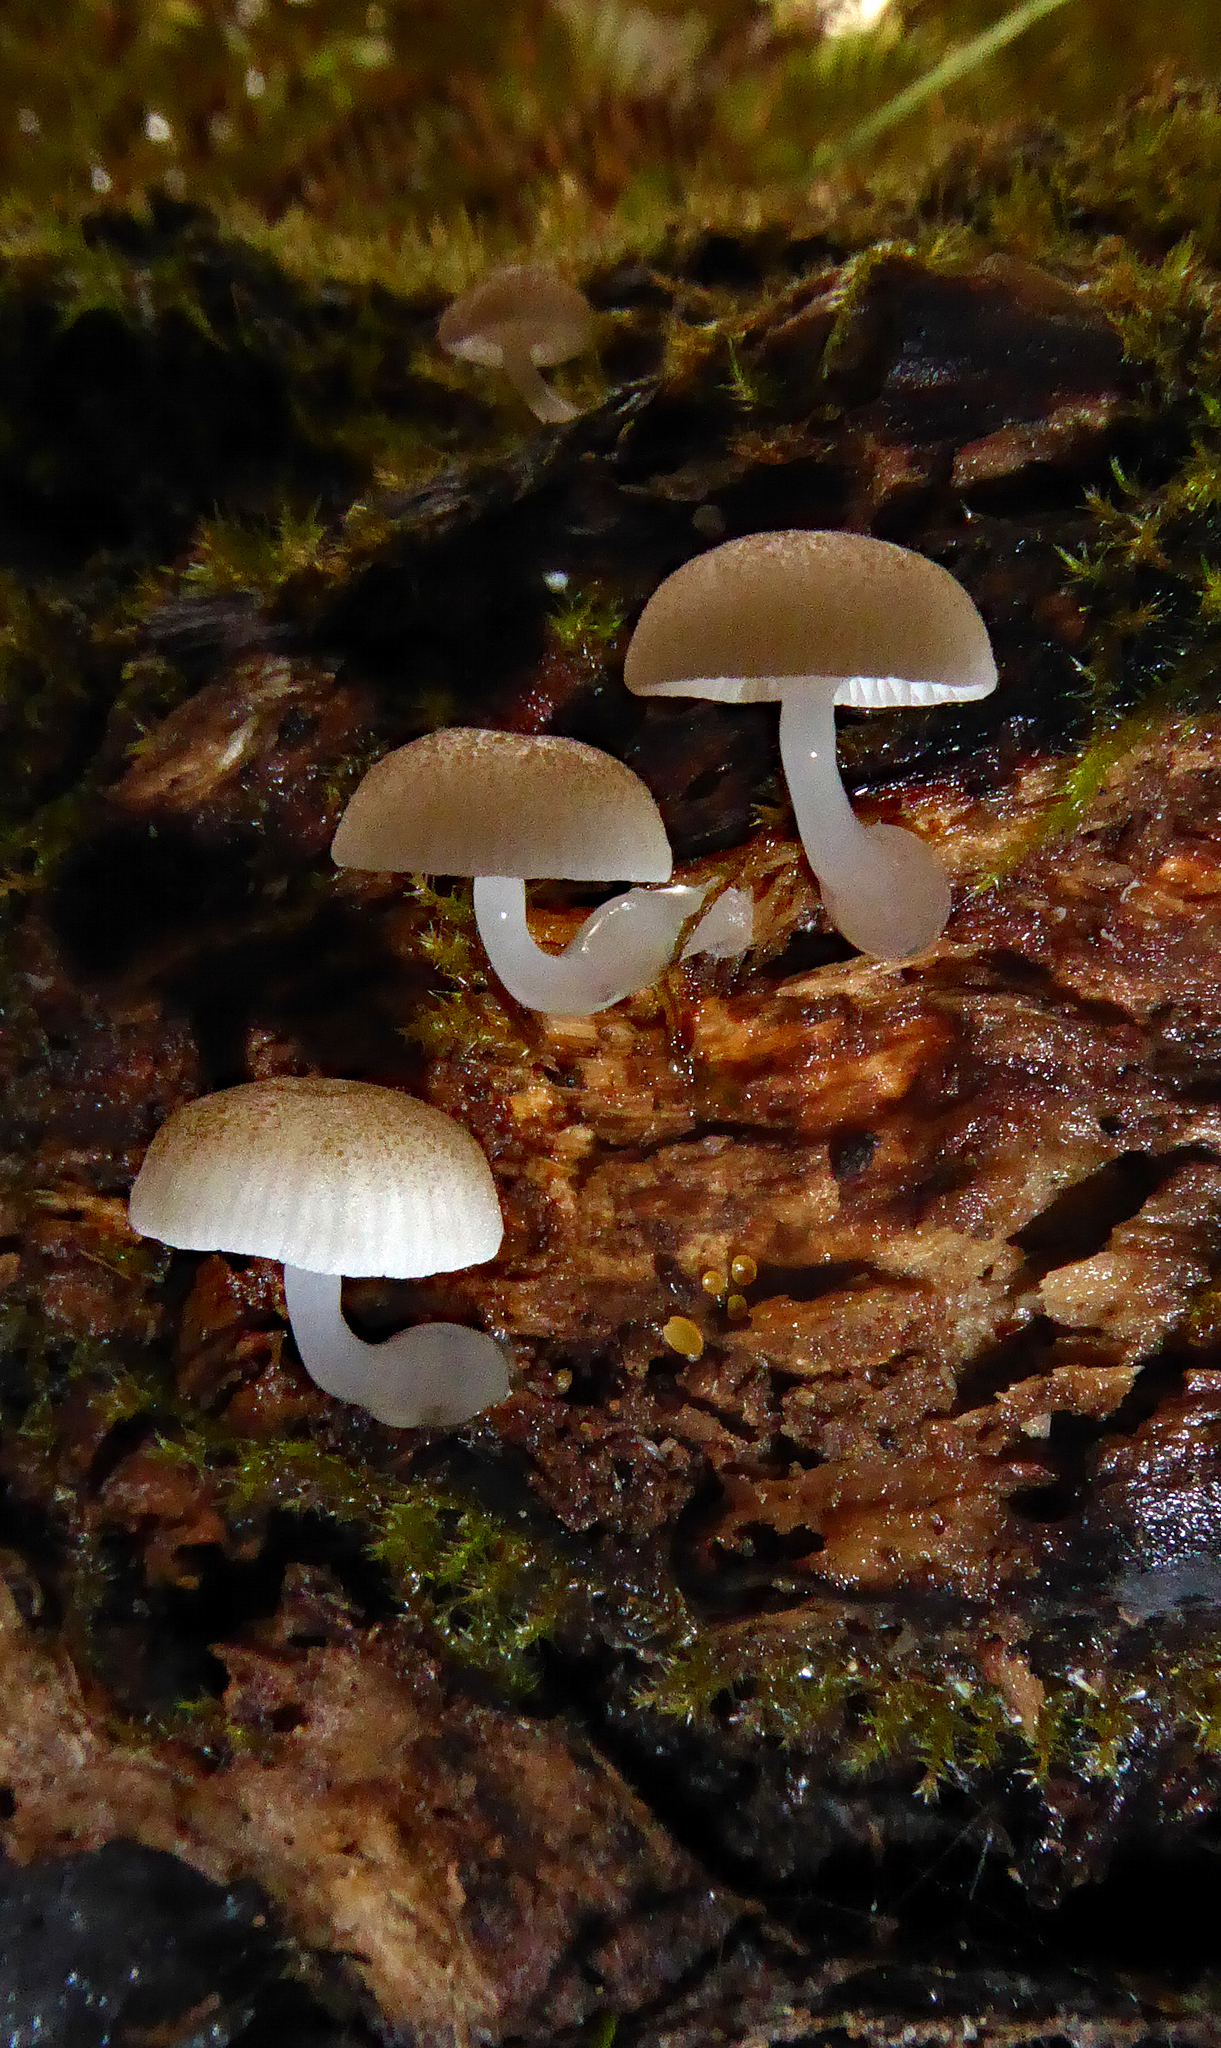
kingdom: Fungi
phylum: Basidiomycota
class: Agaricomycetes
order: Agaricales
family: Mycenaceae
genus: Roridomyces
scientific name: Roridomyces austrororidus
